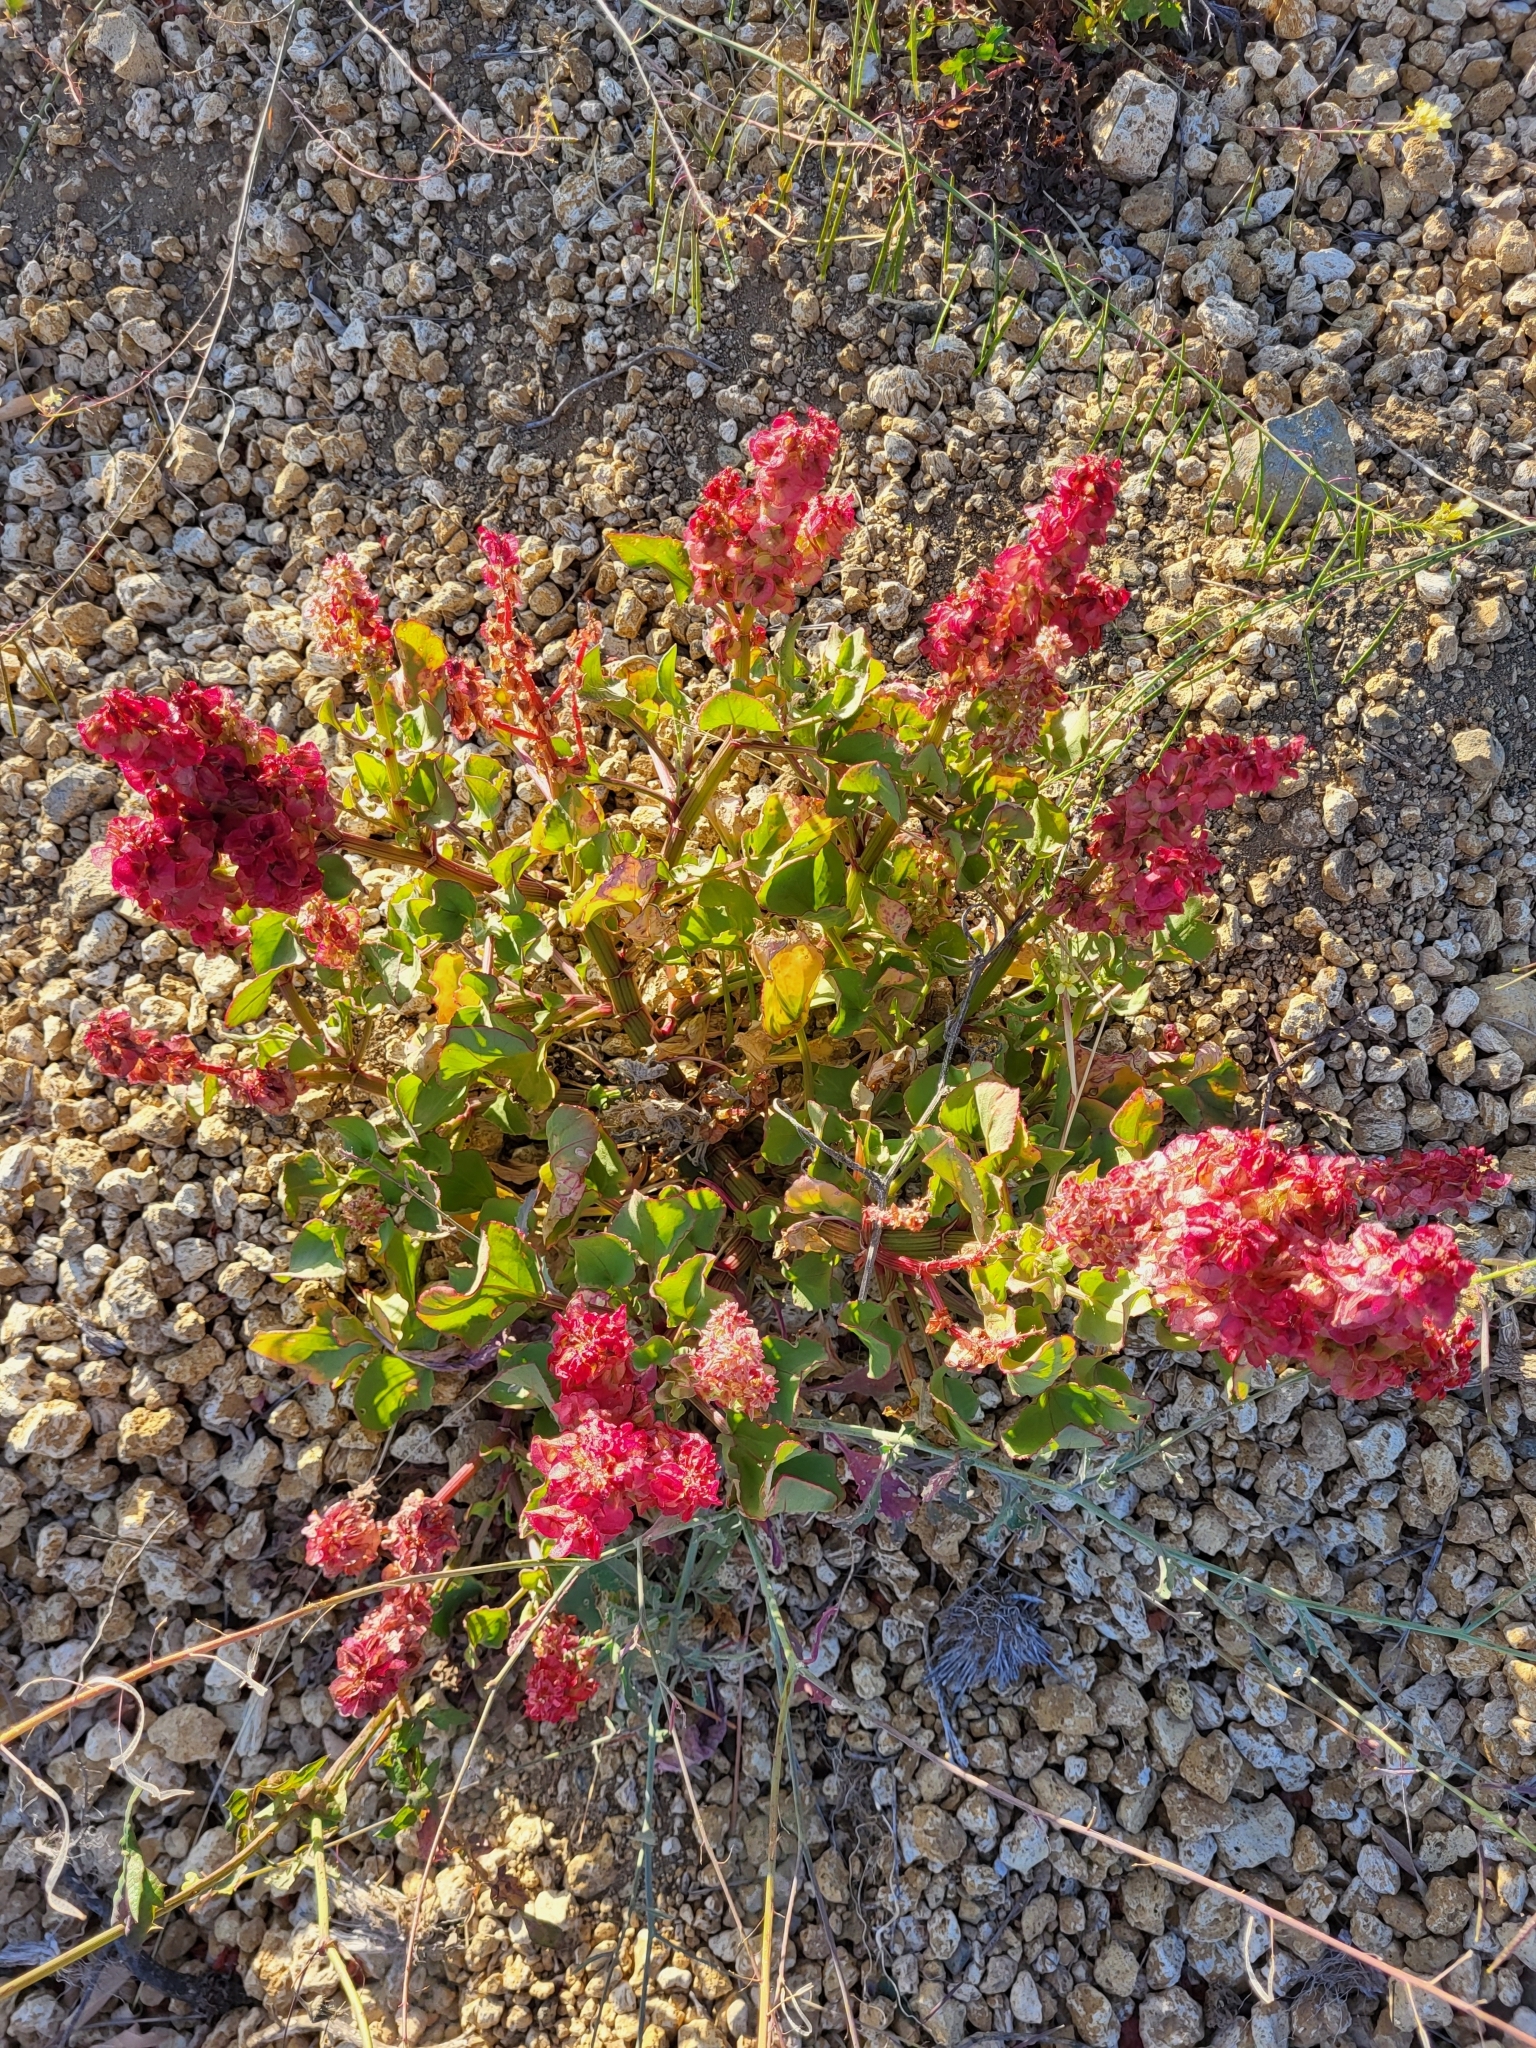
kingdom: Plantae
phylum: Tracheophyta
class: Magnoliopsida
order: Caryophyllales
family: Polygonaceae
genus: Rumex
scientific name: Rumex vesicarius
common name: Bladder dock
